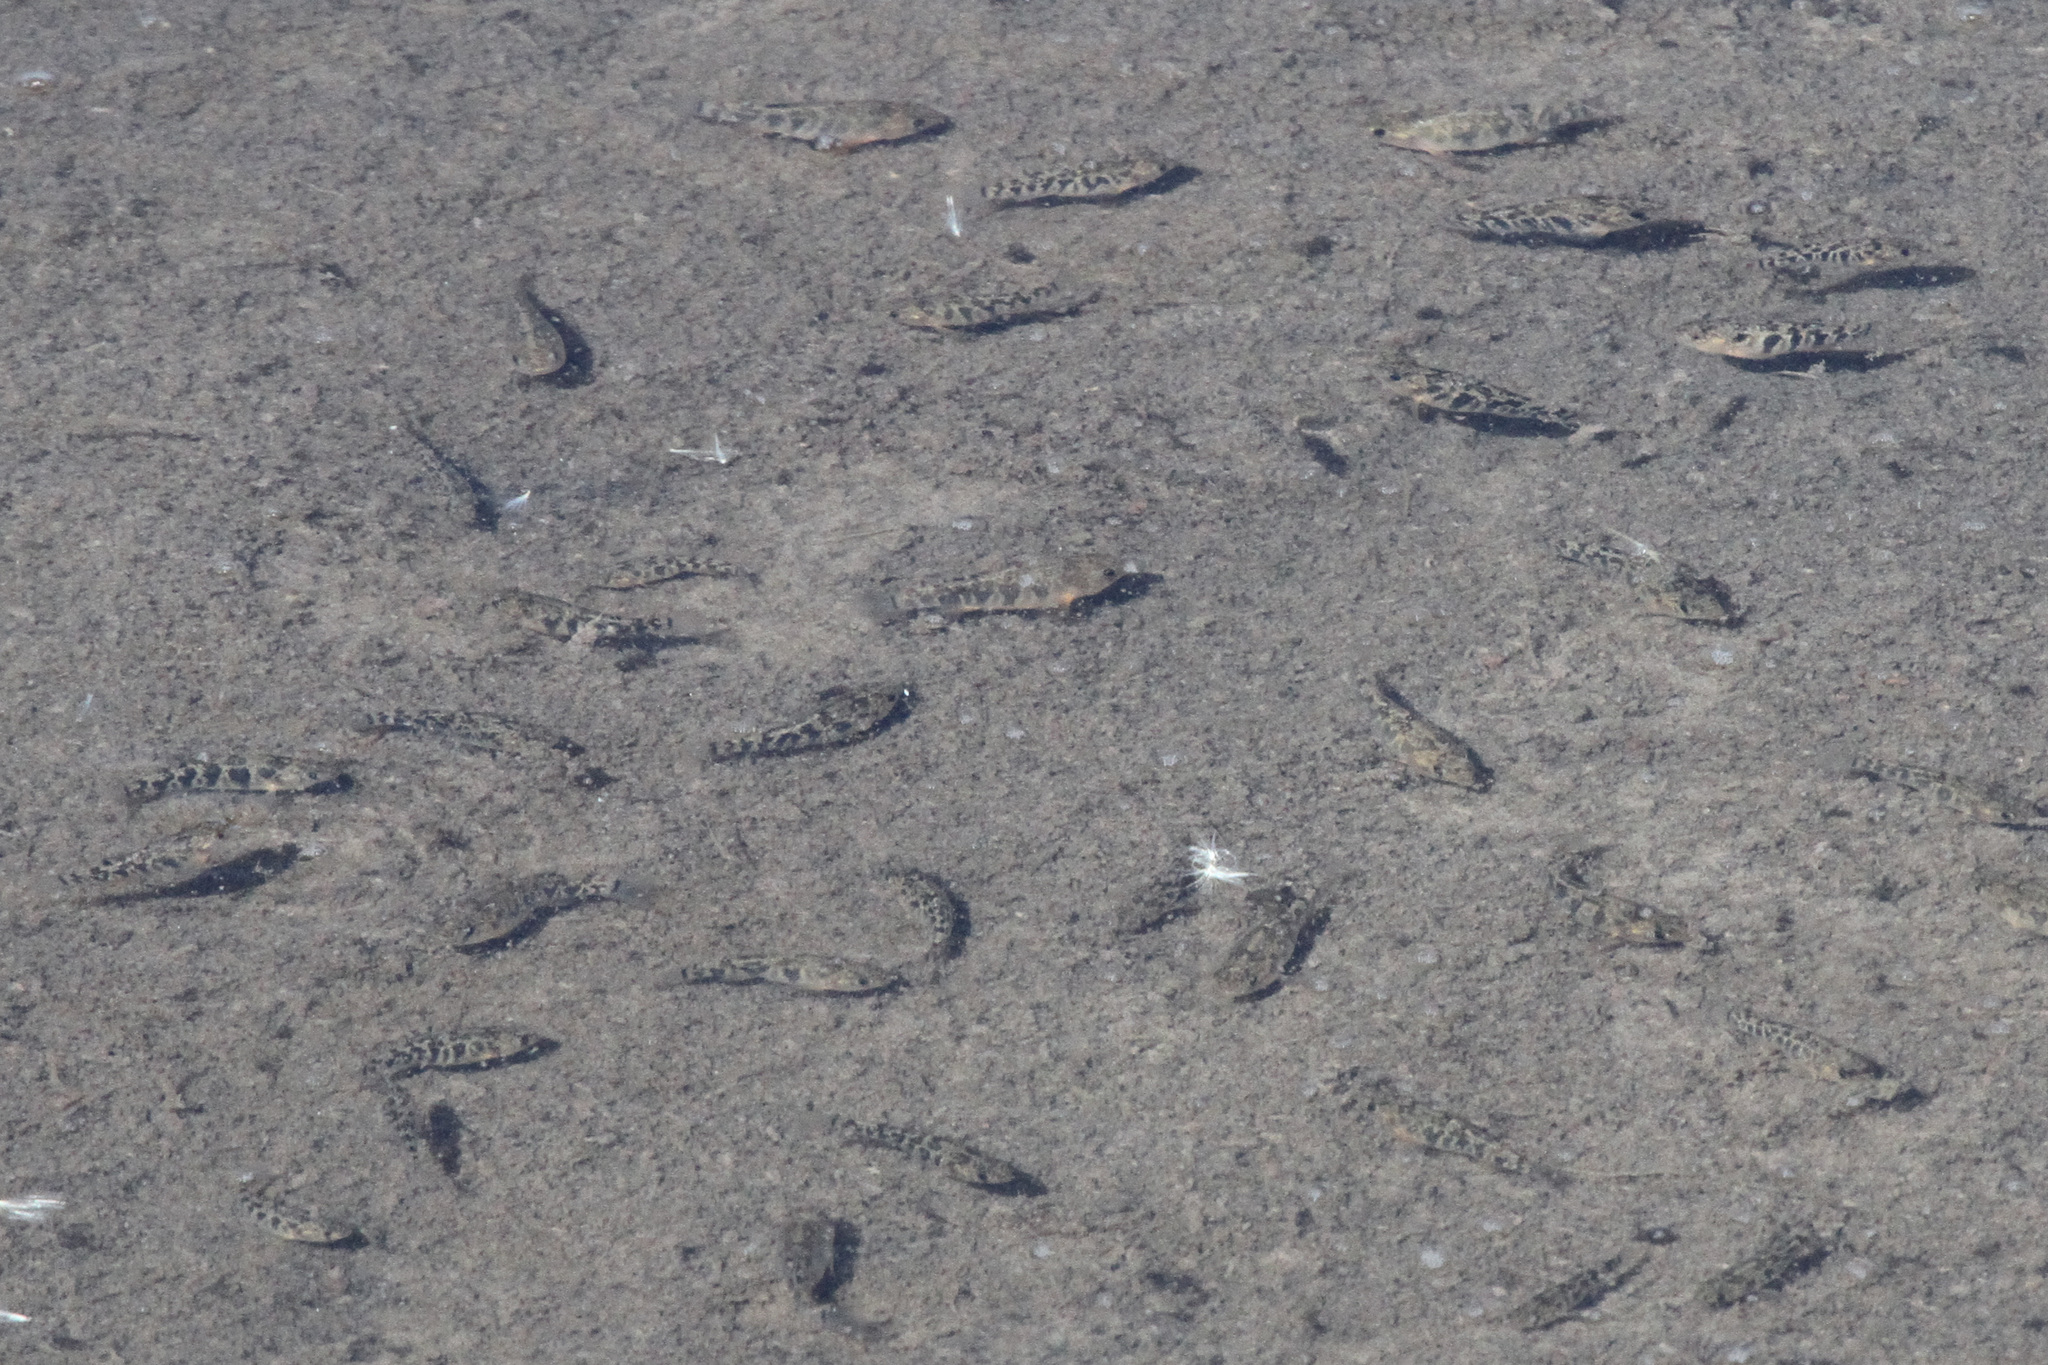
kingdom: Animalia
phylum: Chordata
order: Cyprinodontiformes
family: Cyprinodontidae
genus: Cyprinodon
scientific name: Cyprinodon variegatus
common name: Sheepshead minnow
